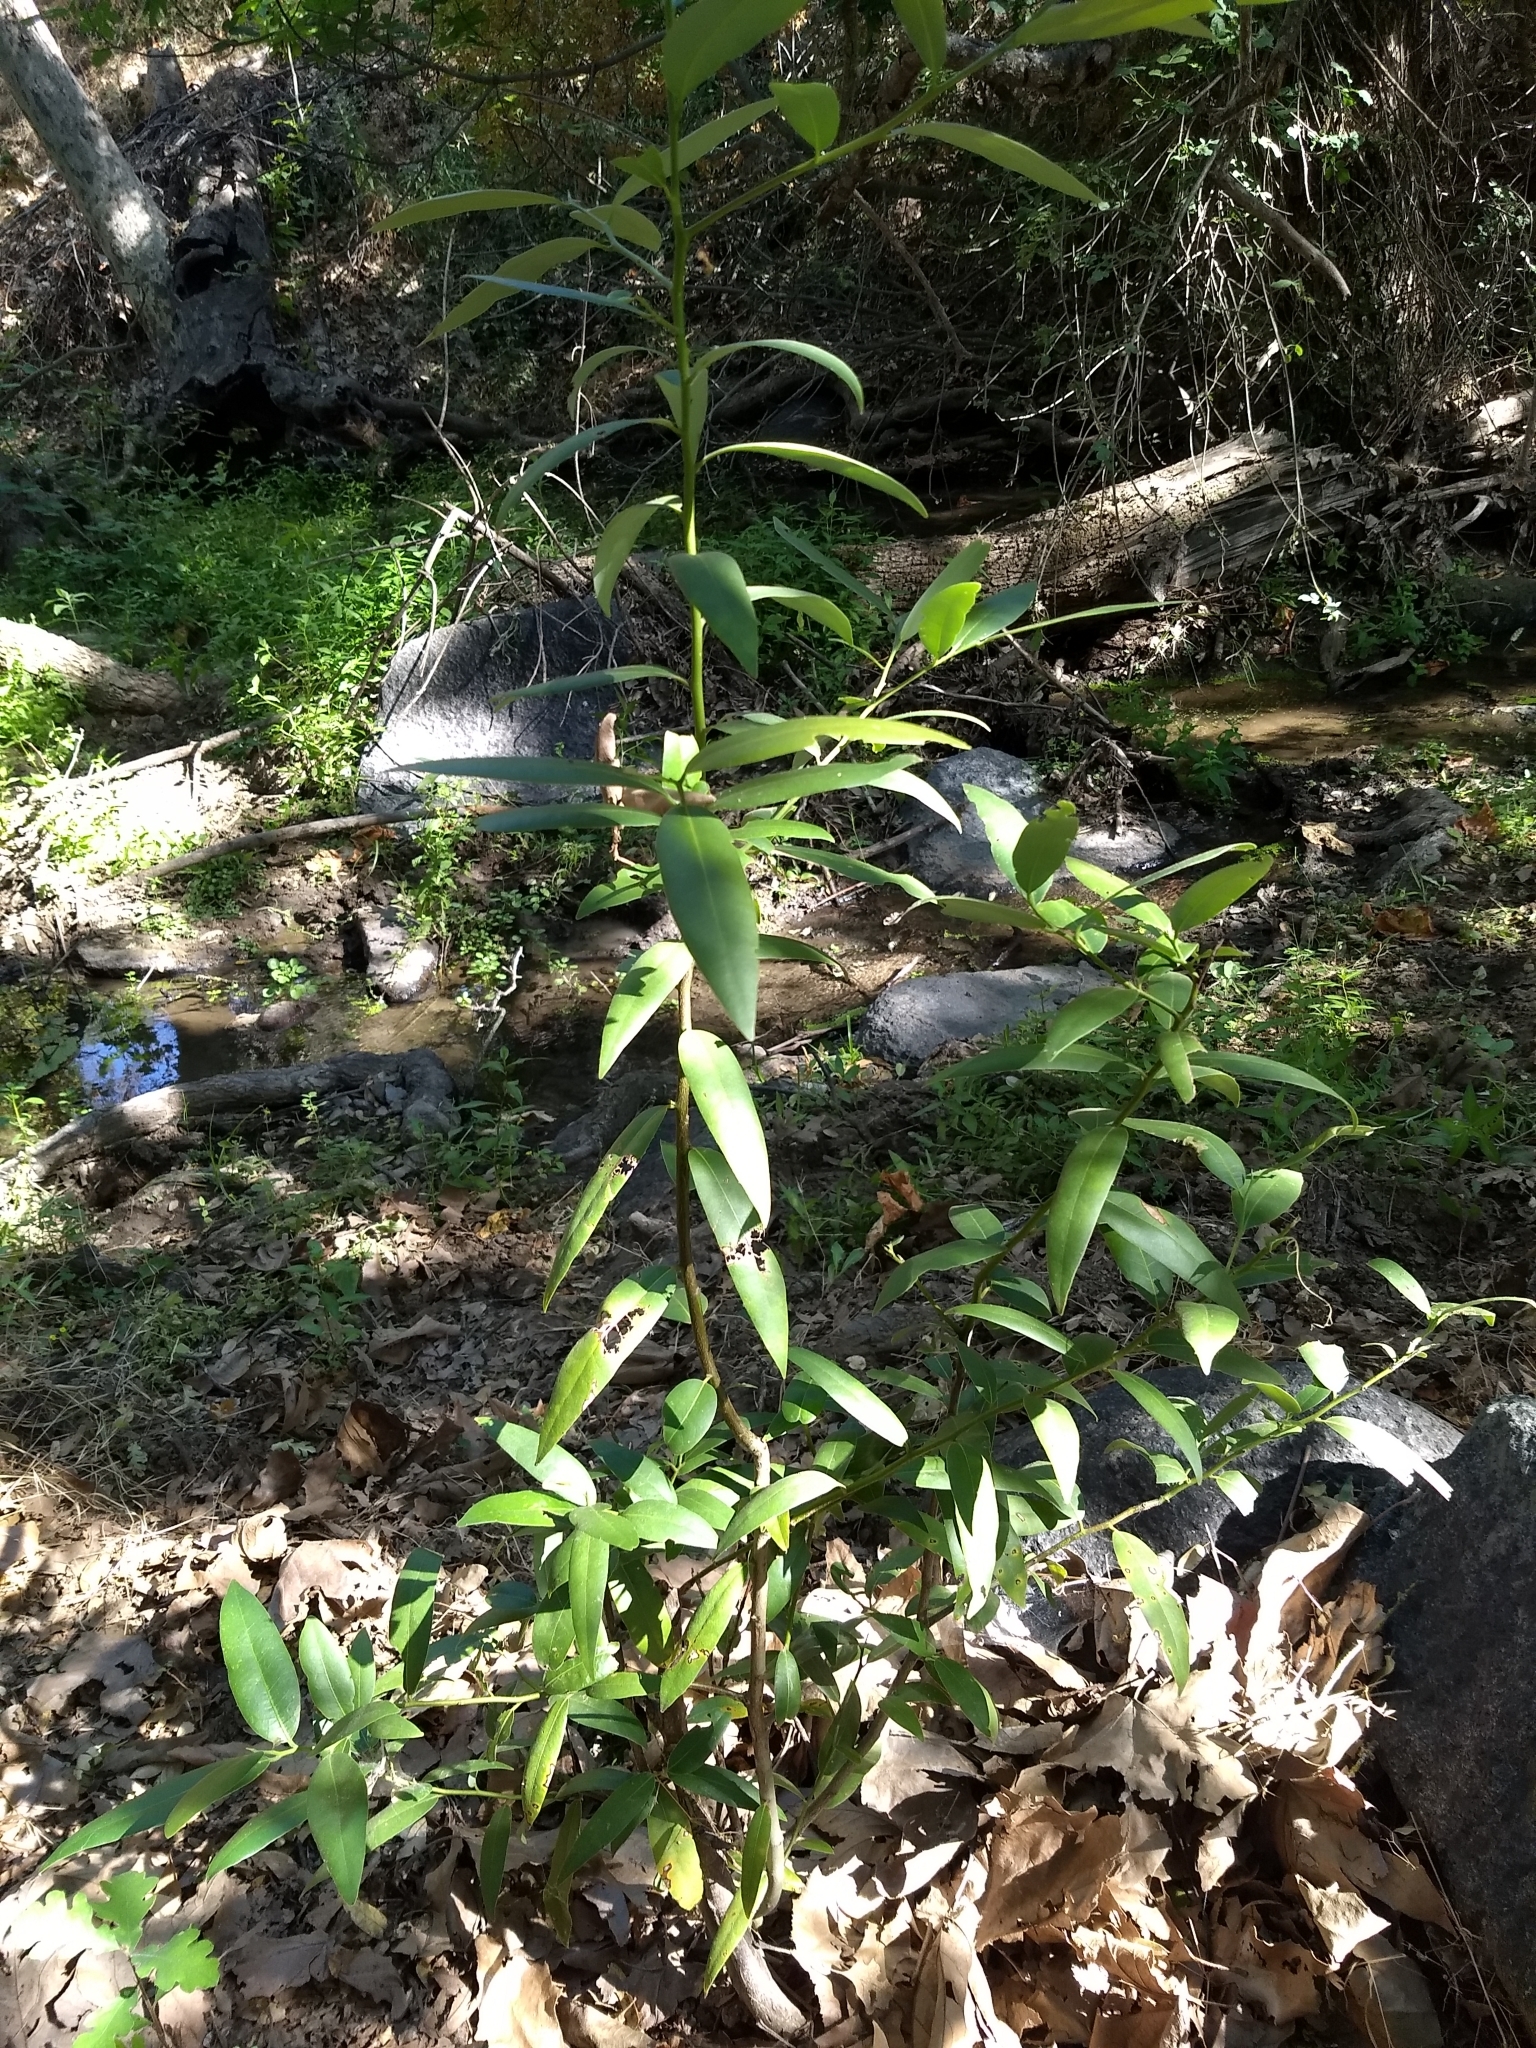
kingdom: Plantae
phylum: Tracheophyta
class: Magnoliopsida
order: Laurales
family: Lauraceae
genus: Umbellularia
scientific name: Umbellularia californica
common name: California bay
